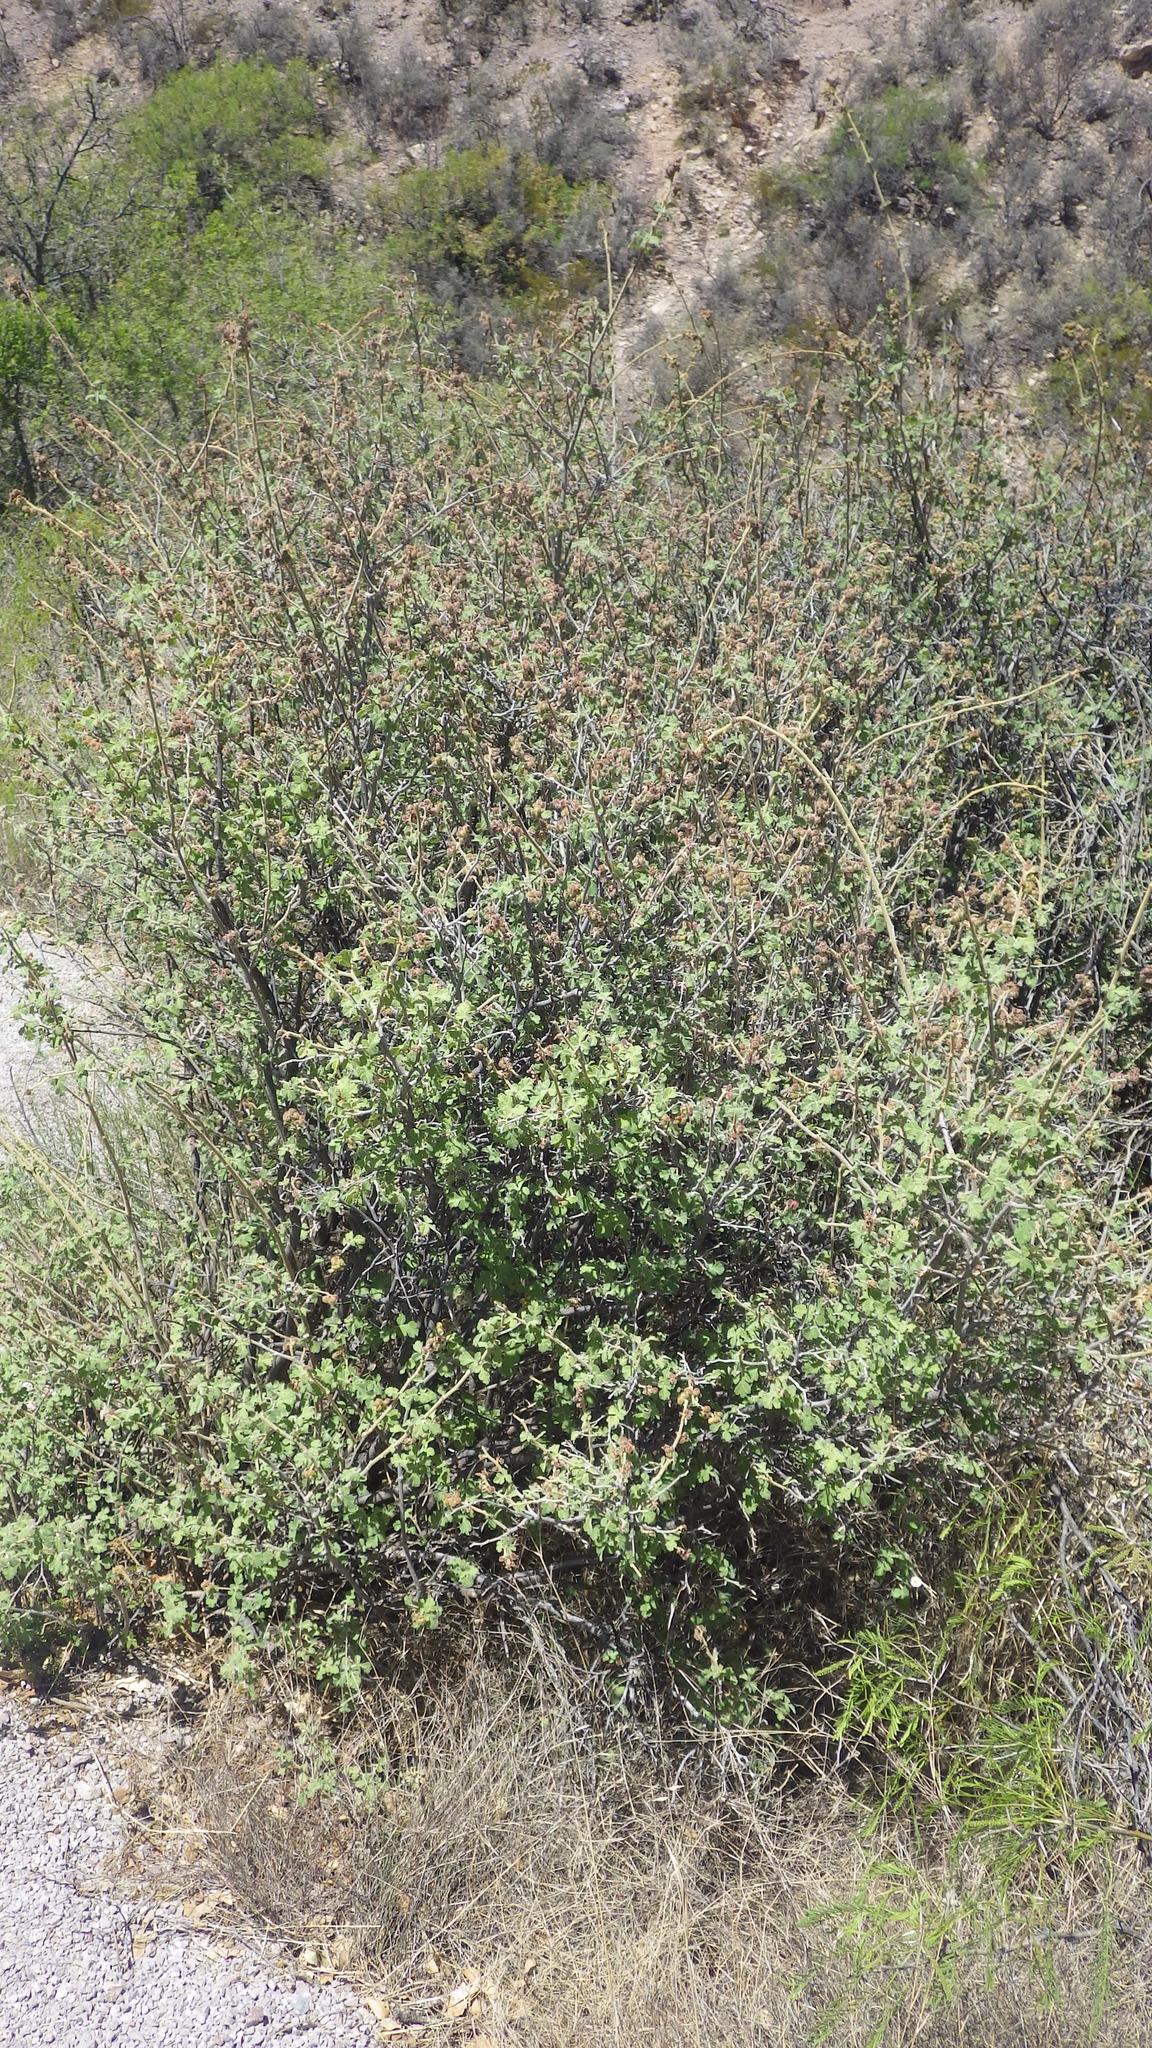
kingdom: Plantae
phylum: Tracheophyta
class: Magnoliopsida
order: Sapindales
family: Anacardiaceae
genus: Rhus
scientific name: Rhus aromatica
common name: Aromatic sumac
